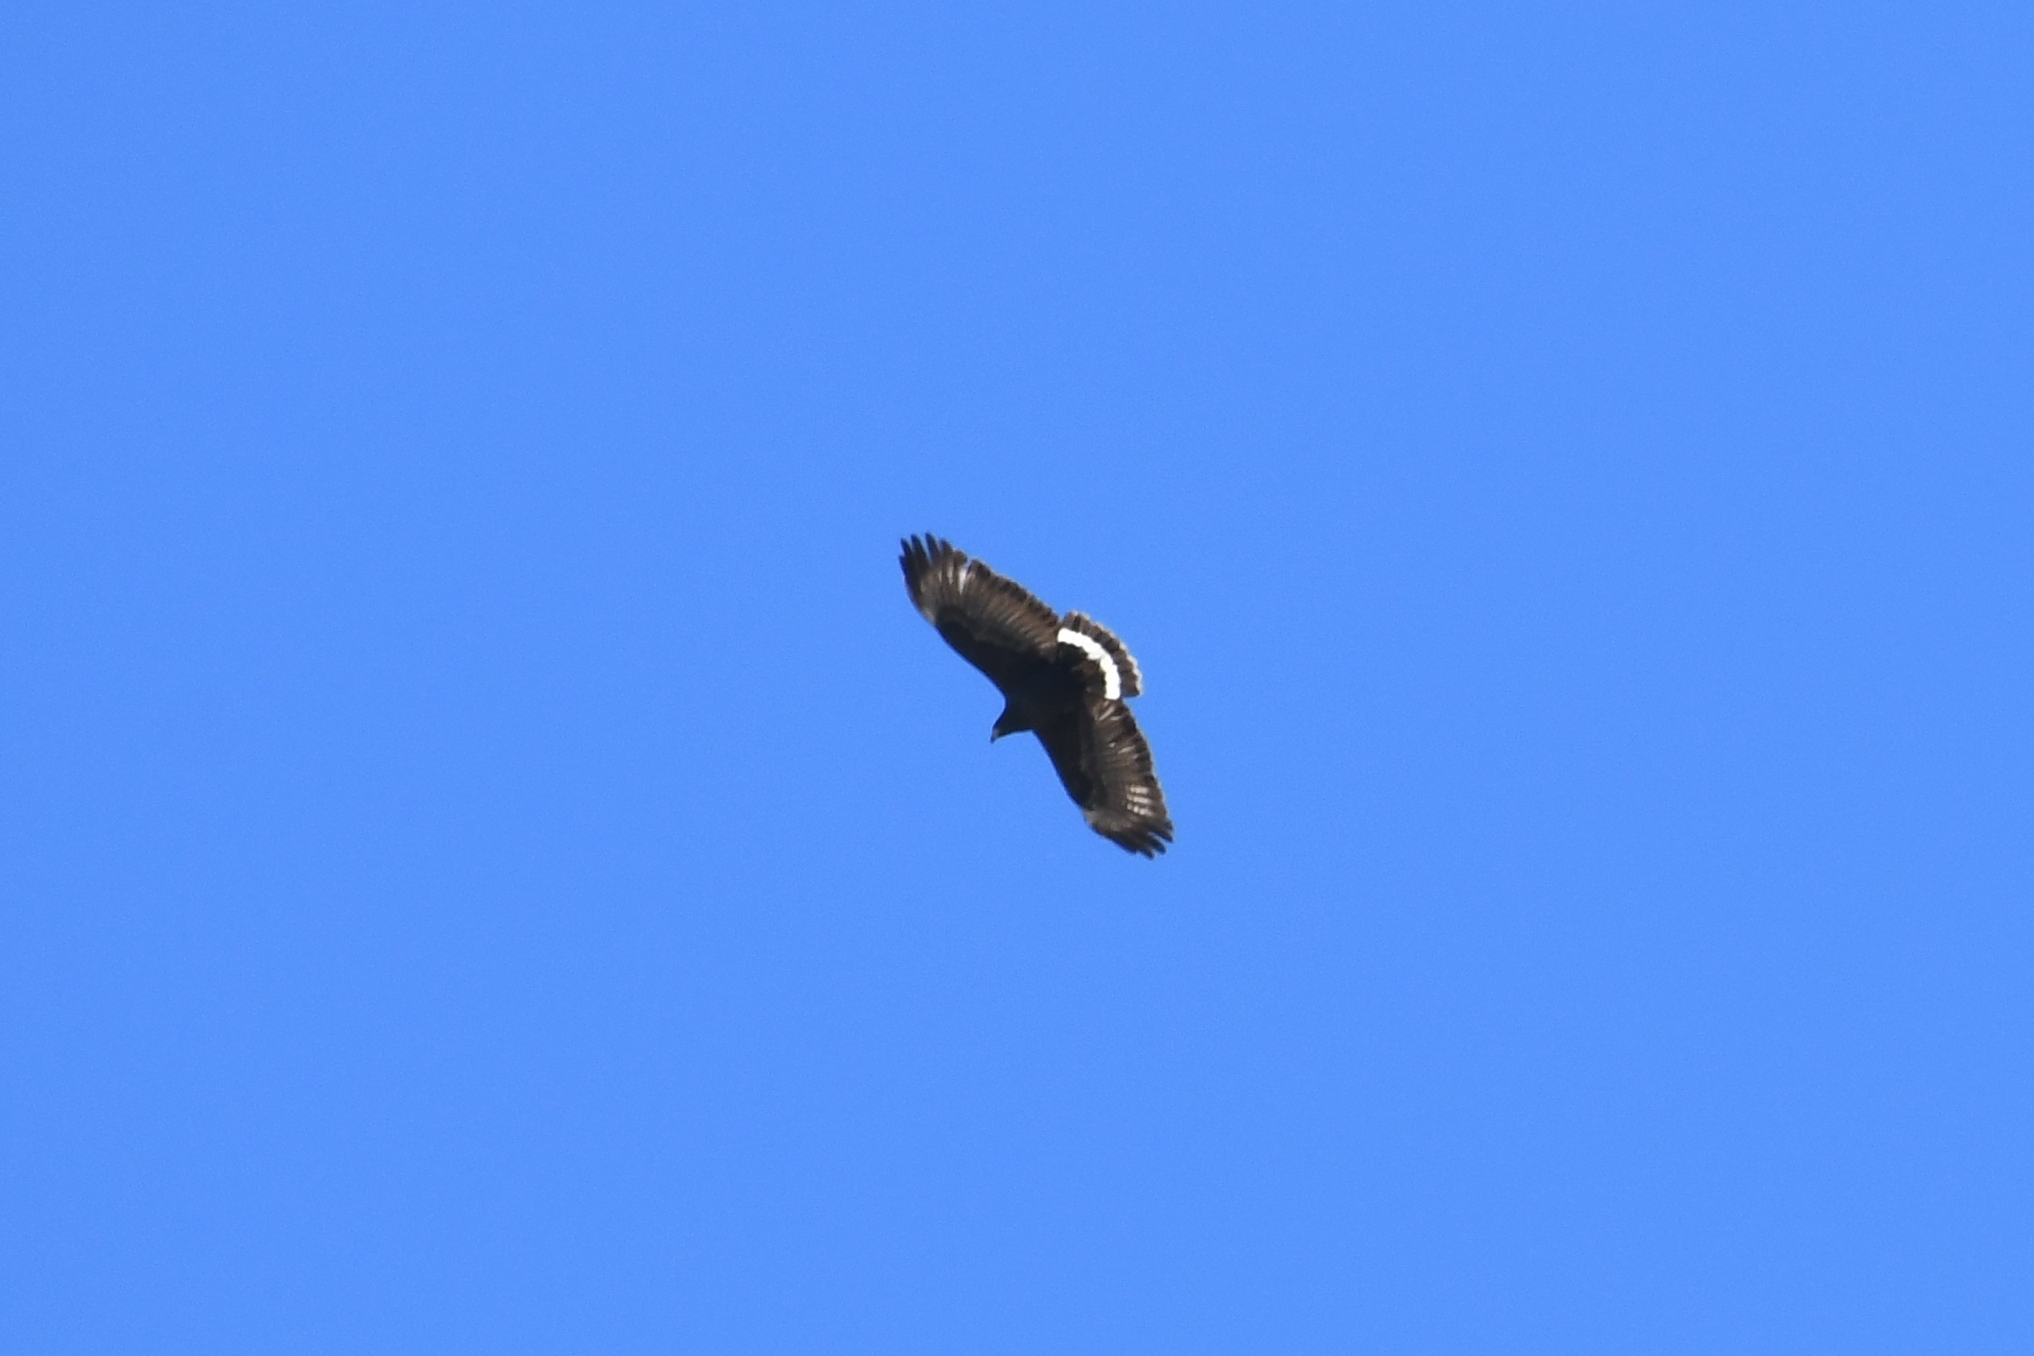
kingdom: Animalia
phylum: Chordata
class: Aves
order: Accipitriformes
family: Accipitridae
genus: Buteogallus
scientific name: Buteogallus anthracinus
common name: Common black hawk
